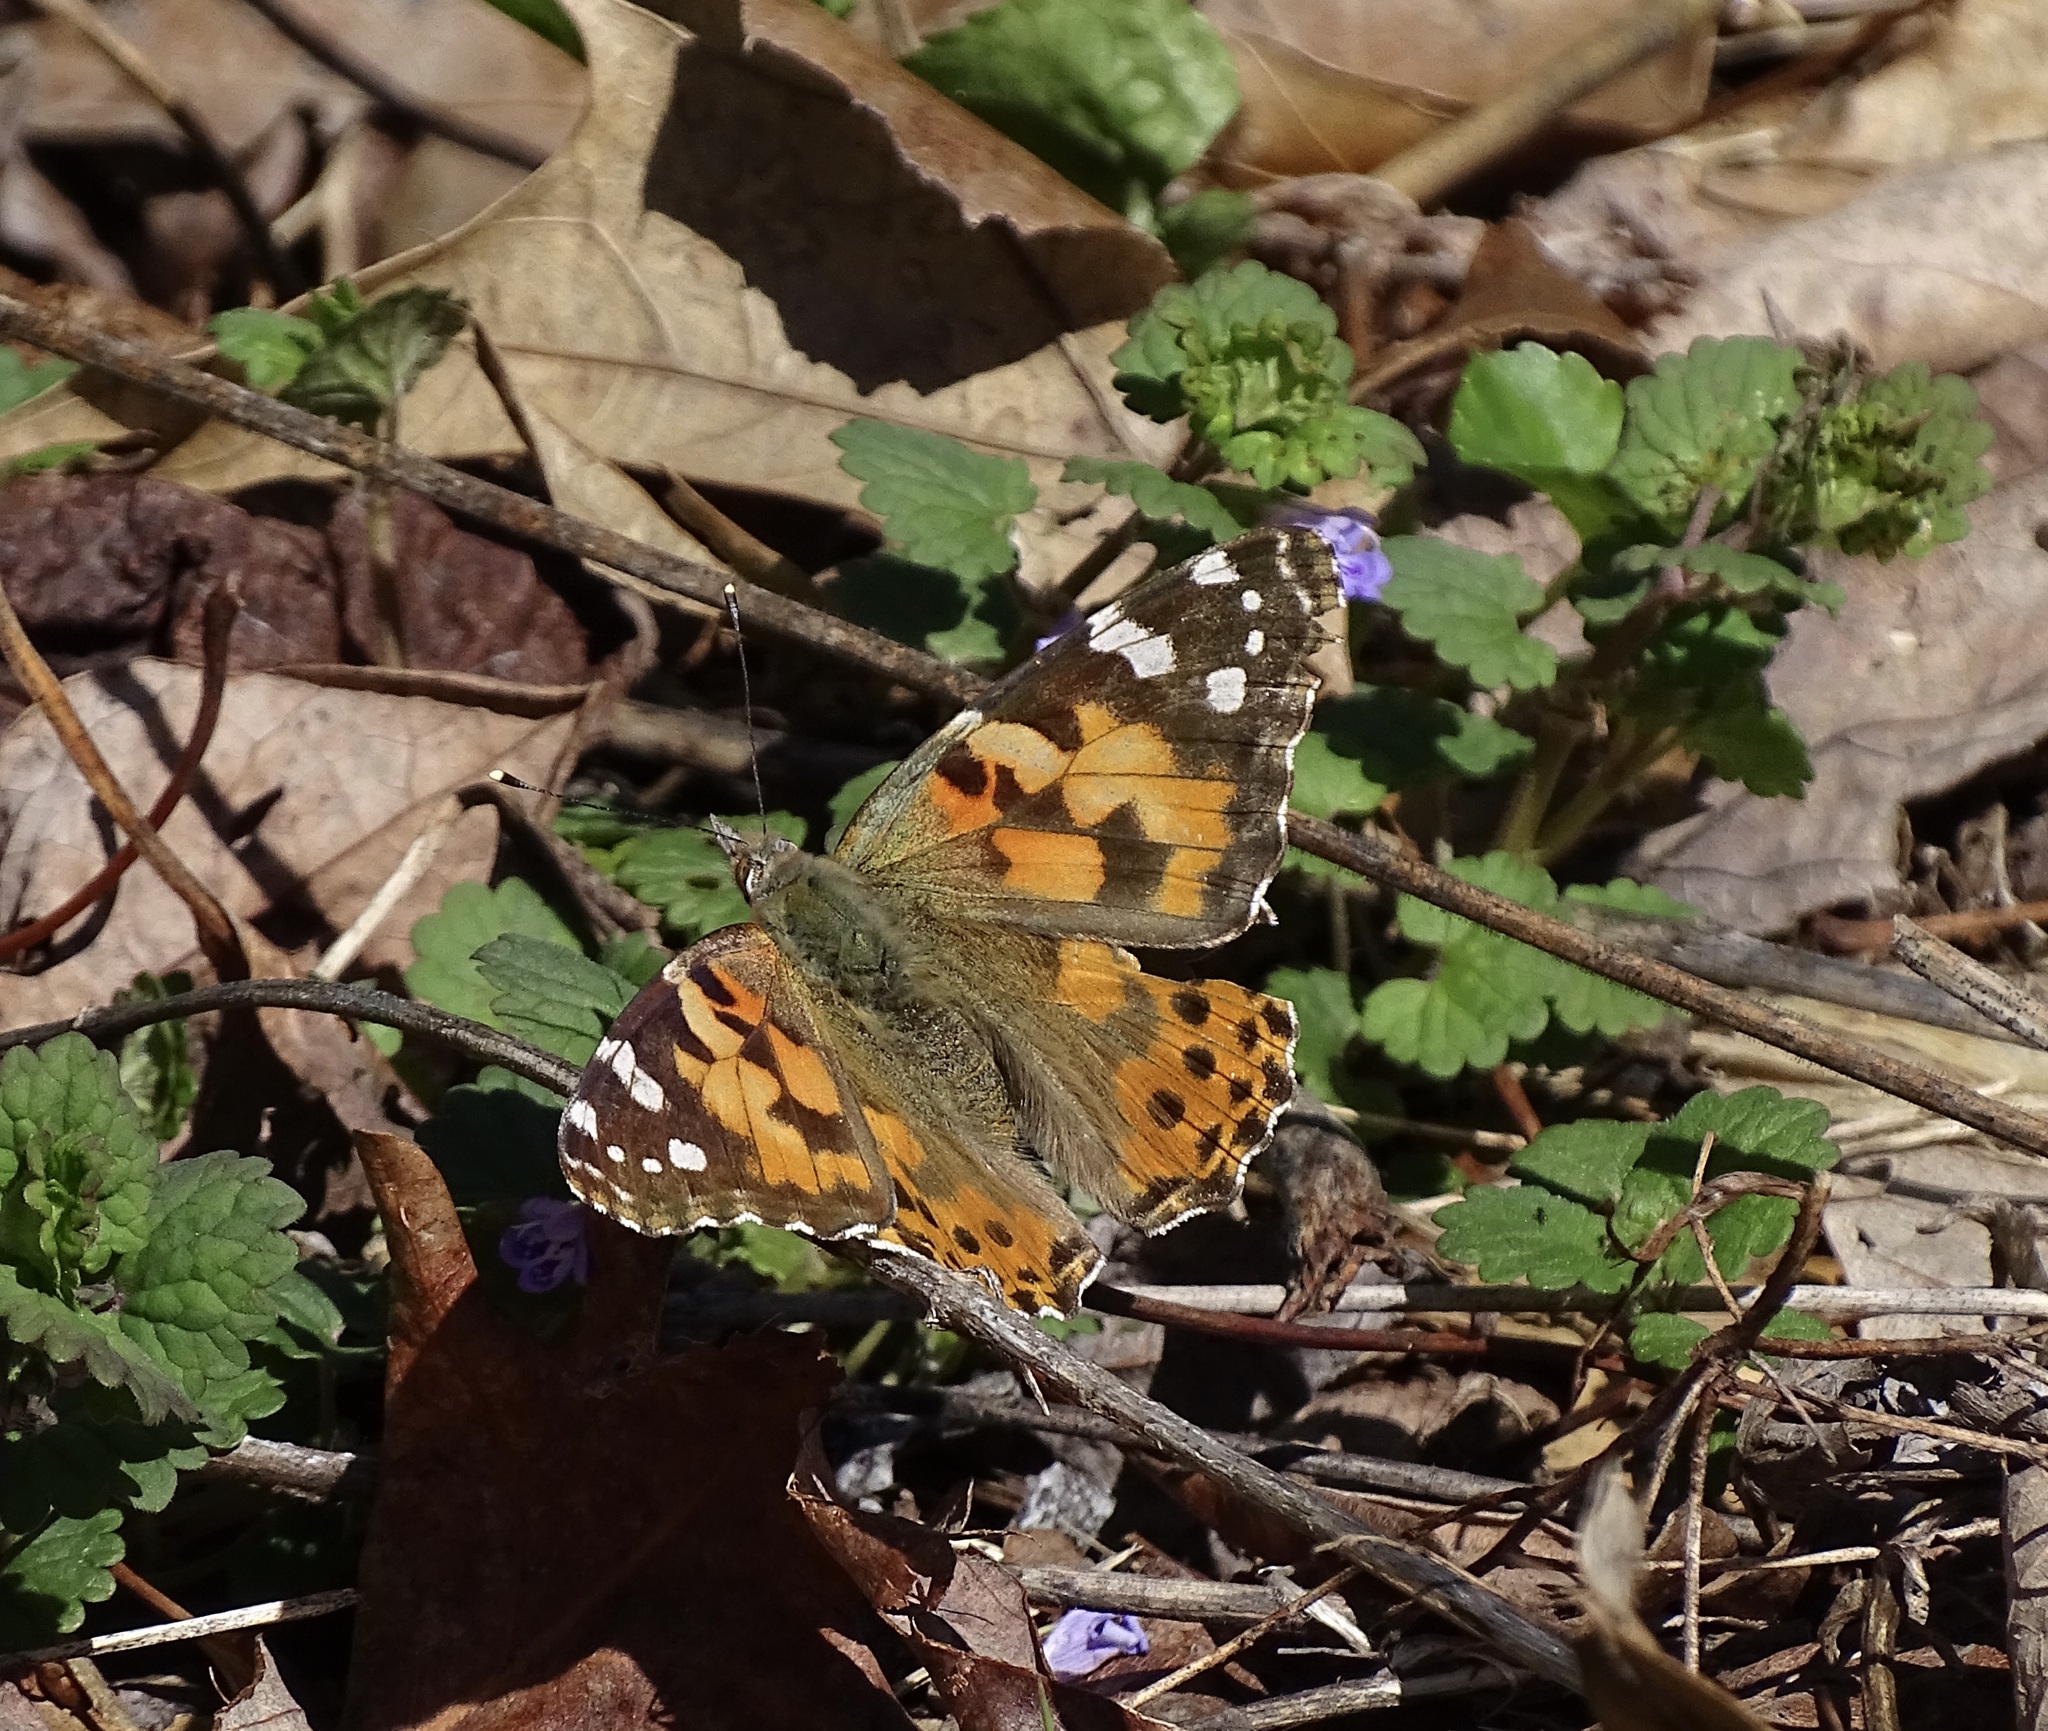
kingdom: Animalia
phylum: Arthropoda
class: Insecta
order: Lepidoptera
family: Nymphalidae
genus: Vanessa
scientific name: Vanessa cardui
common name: Painted lady
